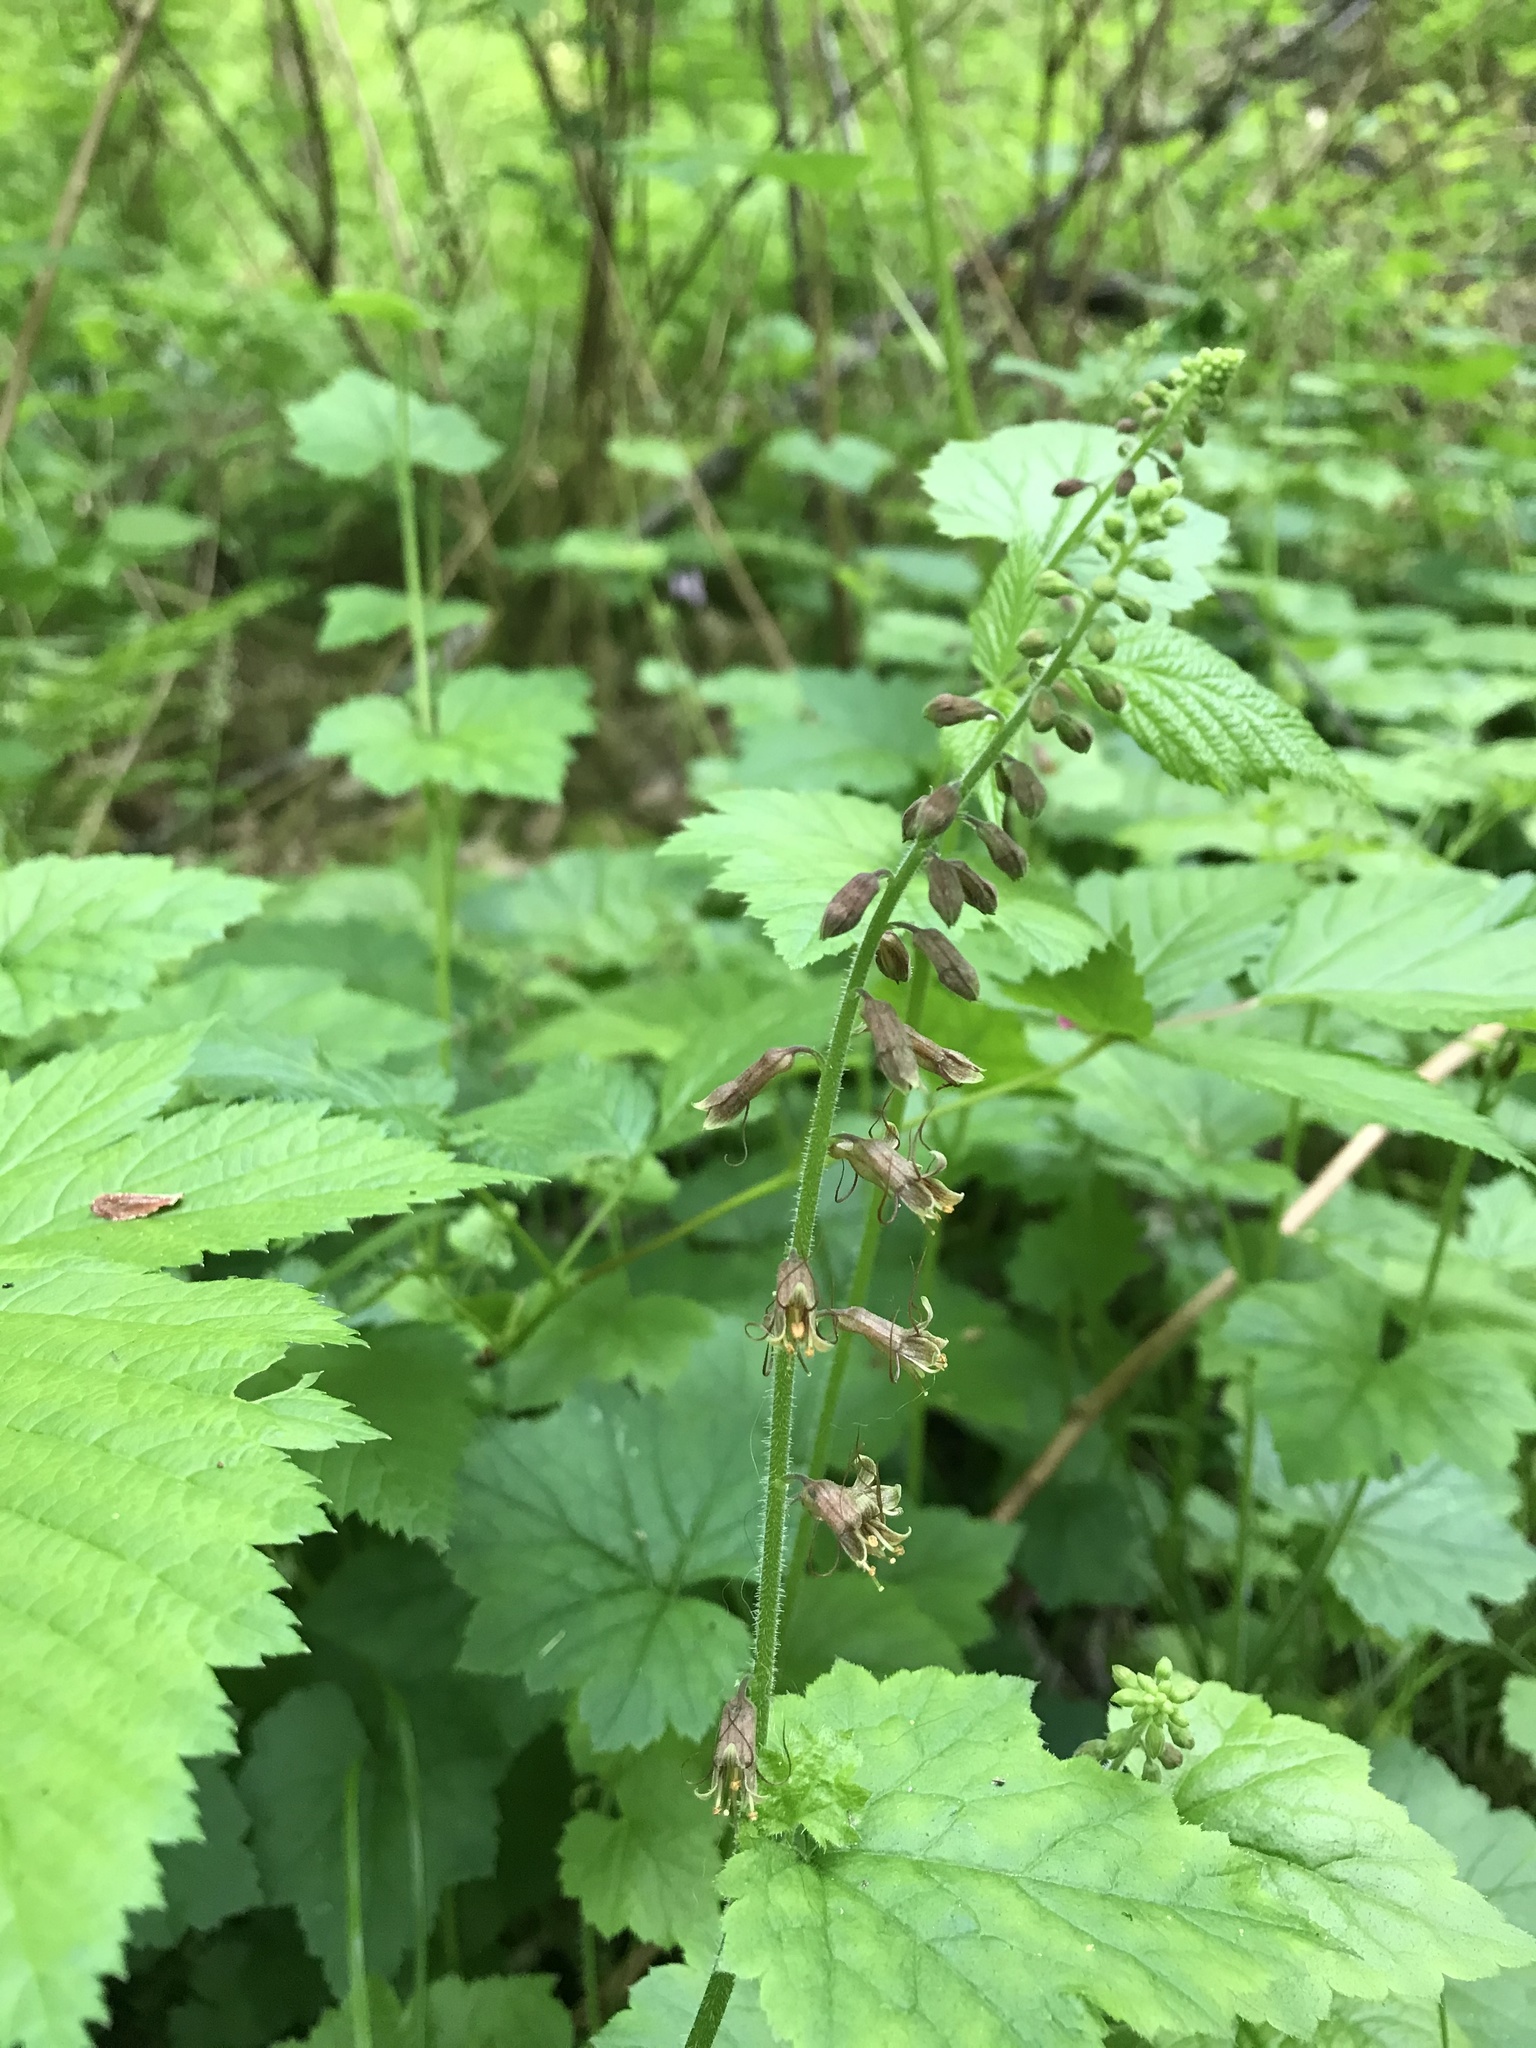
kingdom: Plantae
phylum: Tracheophyta
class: Magnoliopsida
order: Saxifragales
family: Saxifragaceae
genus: Tolmiea
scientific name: Tolmiea menziesii
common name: Pick-a-back-plant
